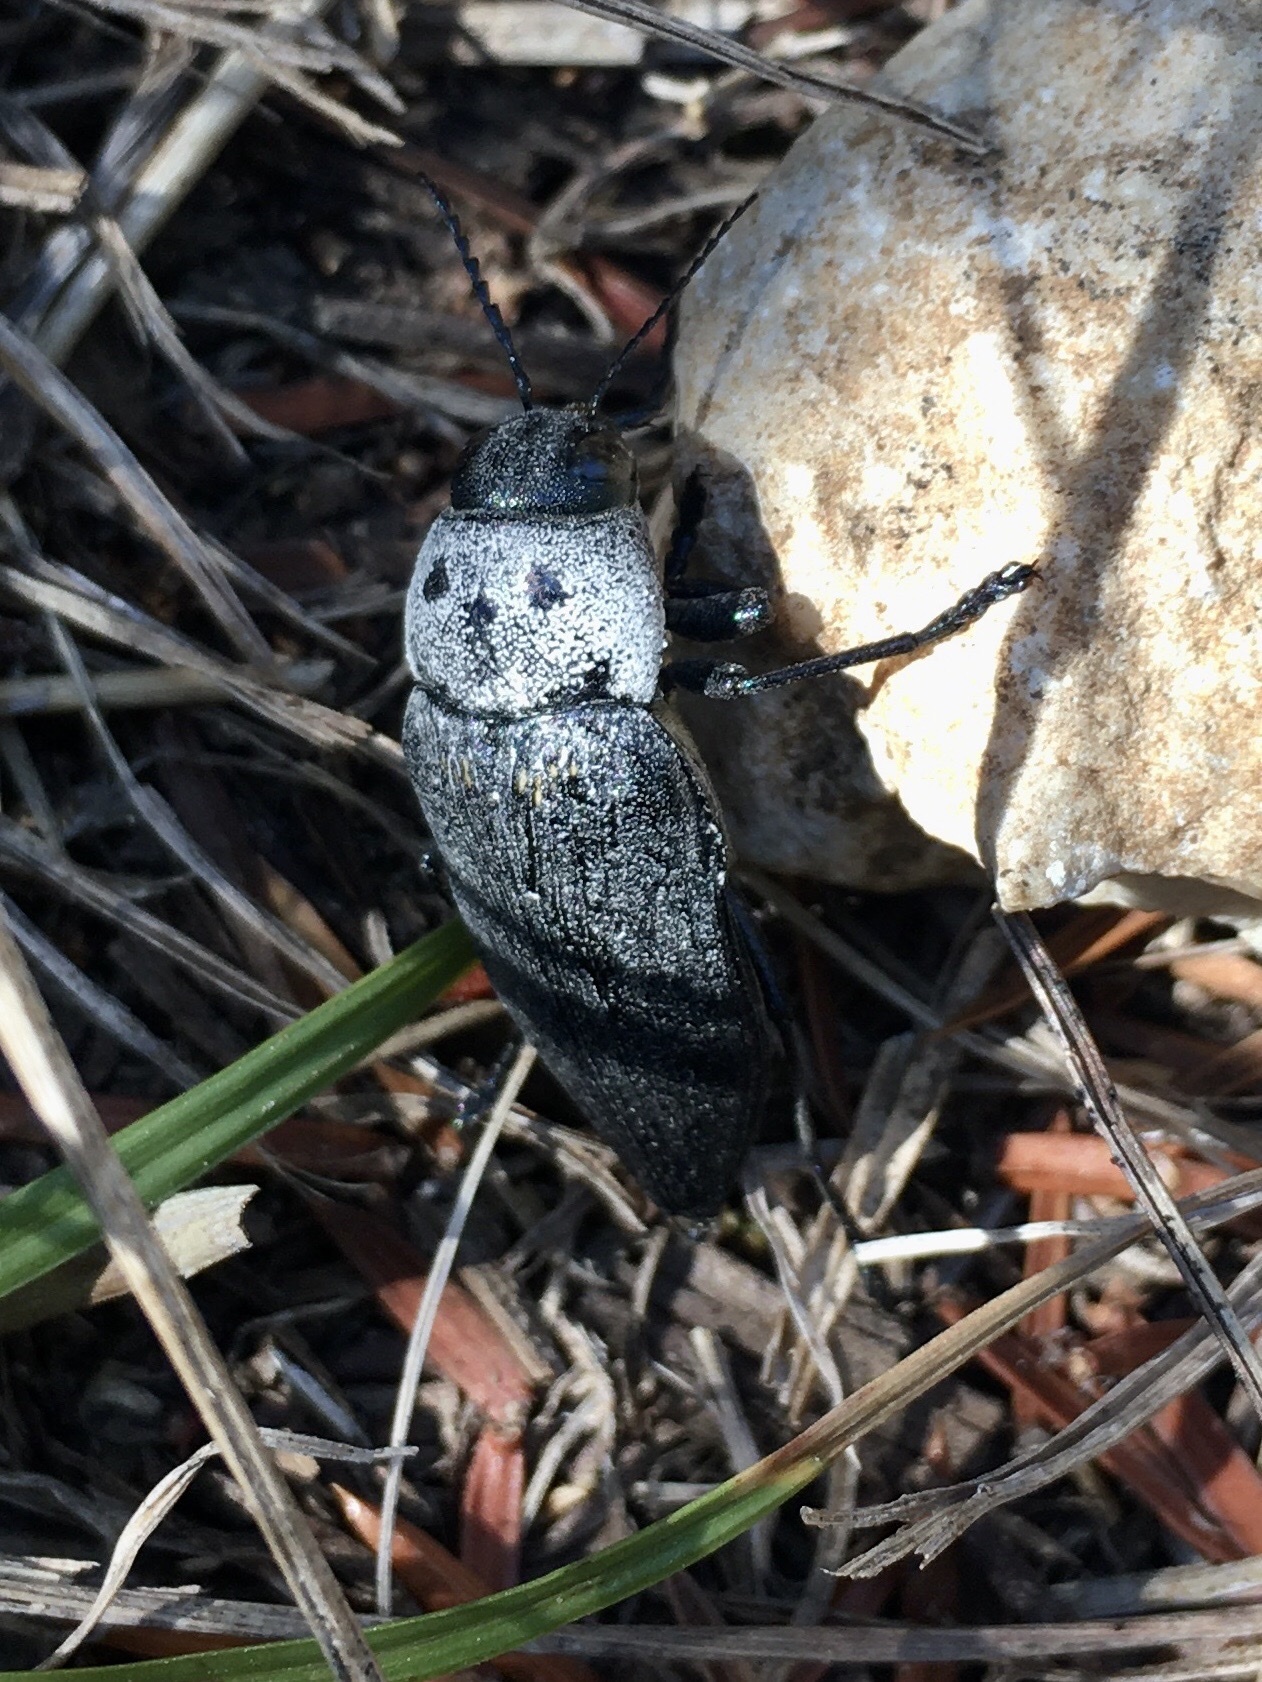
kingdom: Animalia
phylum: Arthropoda
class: Insecta
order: Coleoptera
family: Buprestidae
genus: Buprestis
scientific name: Buprestis cupressi
